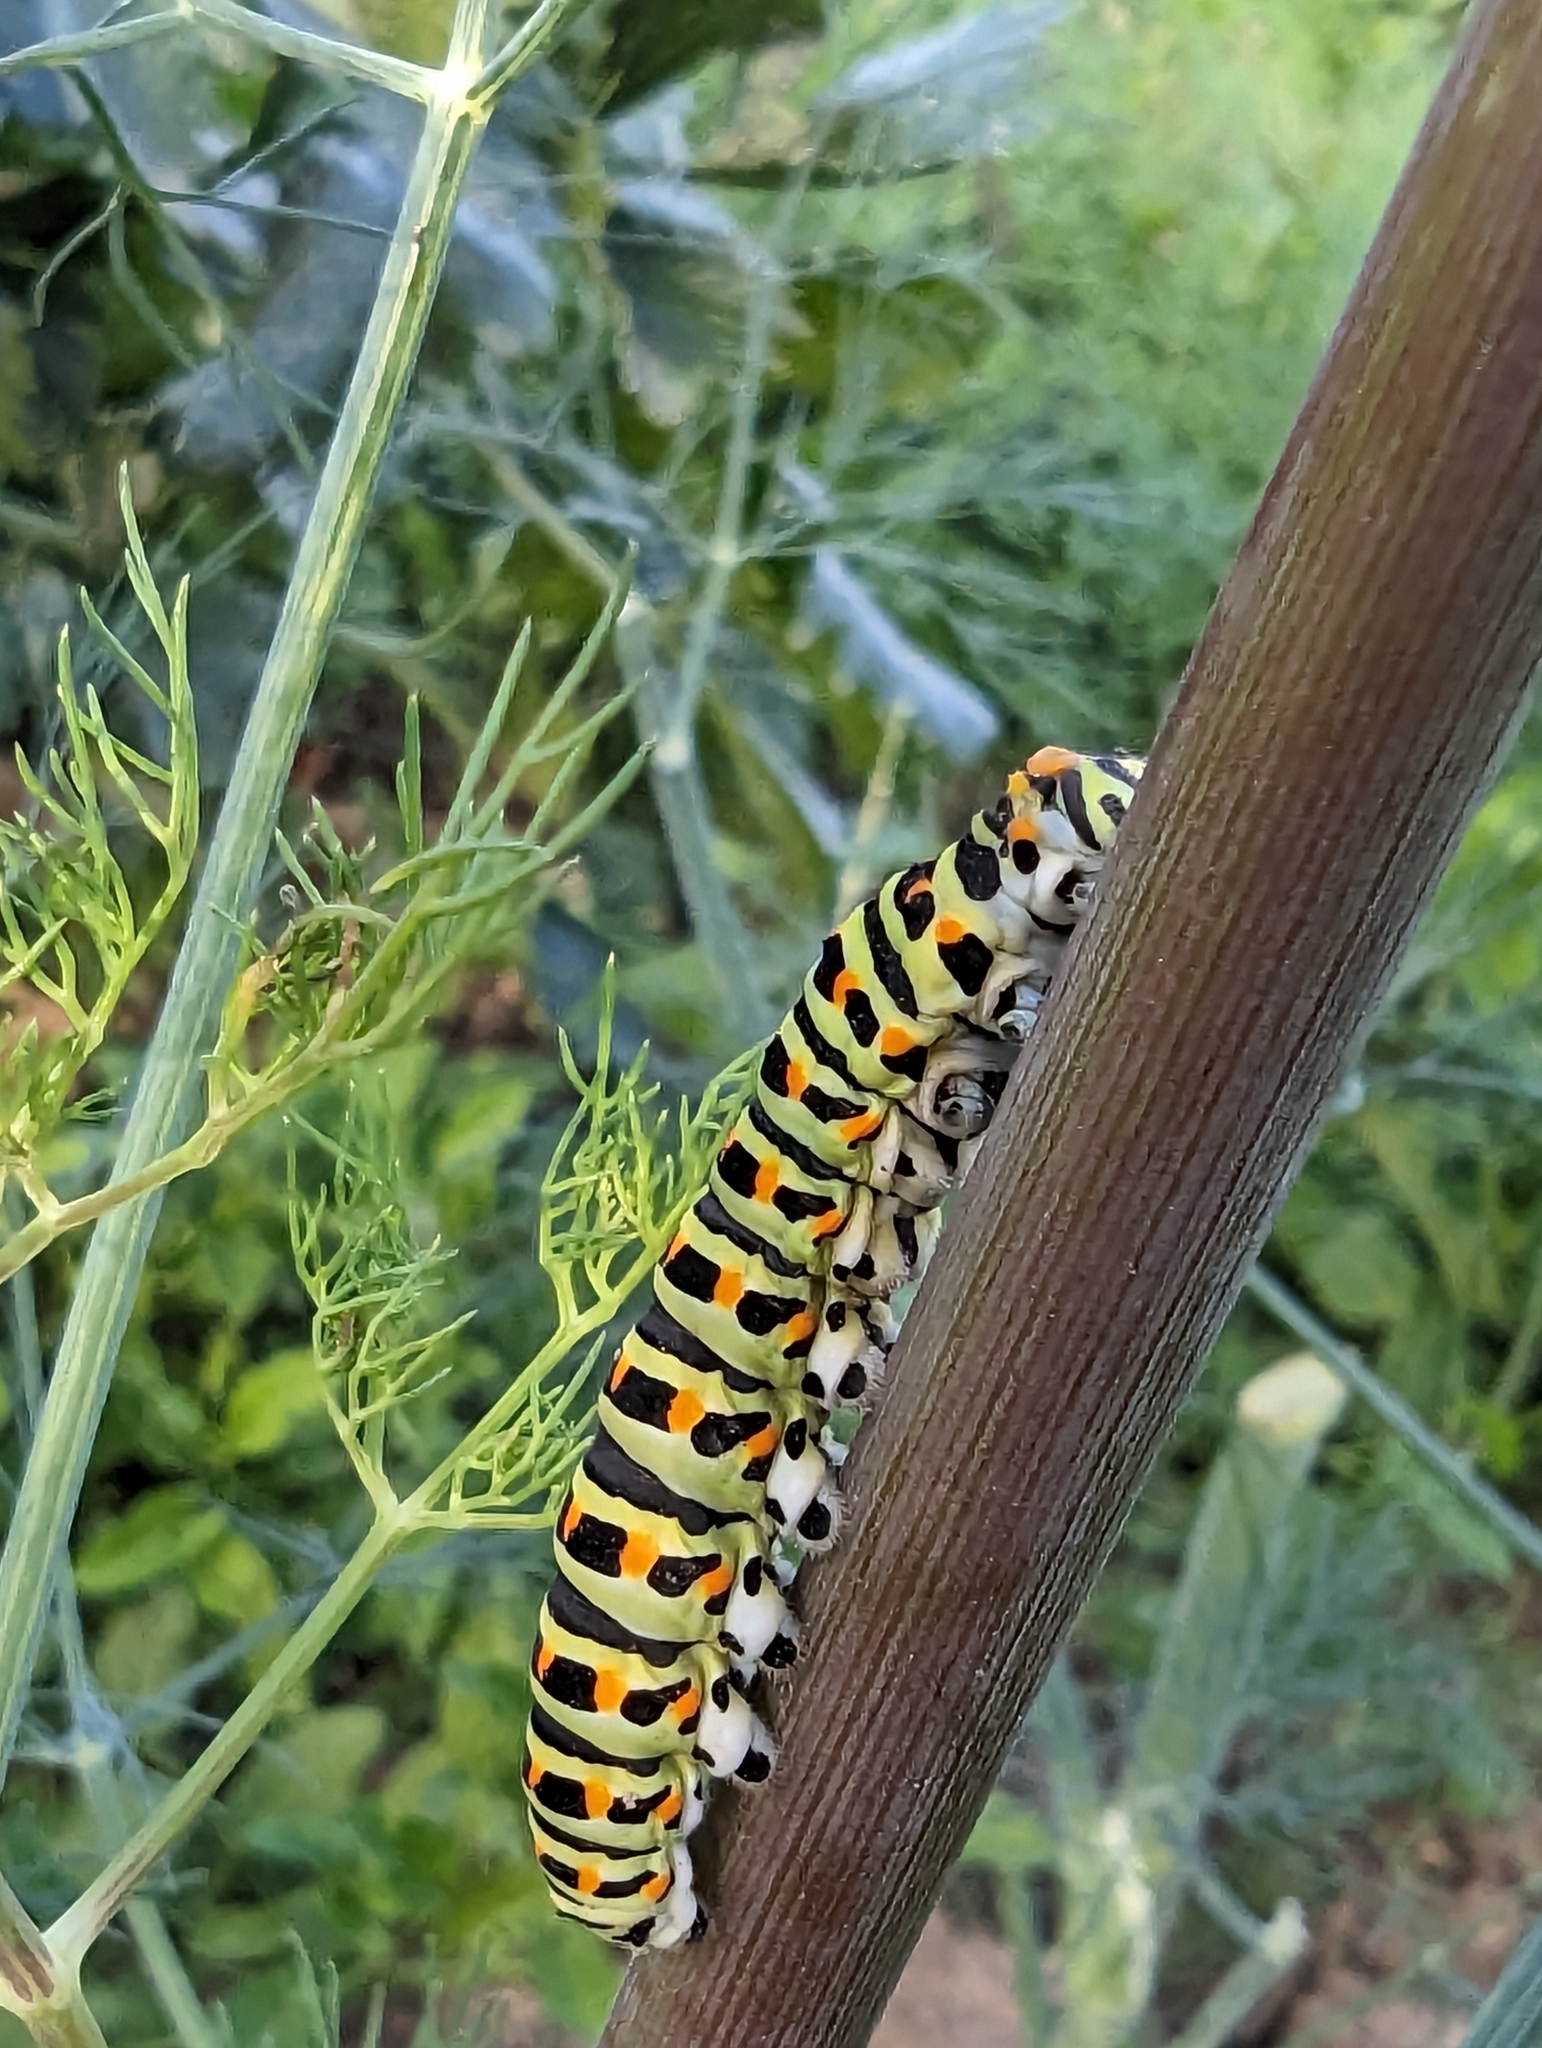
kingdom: Animalia
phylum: Arthropoda
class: Insecta
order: Lepidoptera
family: Papilionidae
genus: Papilio
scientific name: Papilio machaon
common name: Swallowtail
